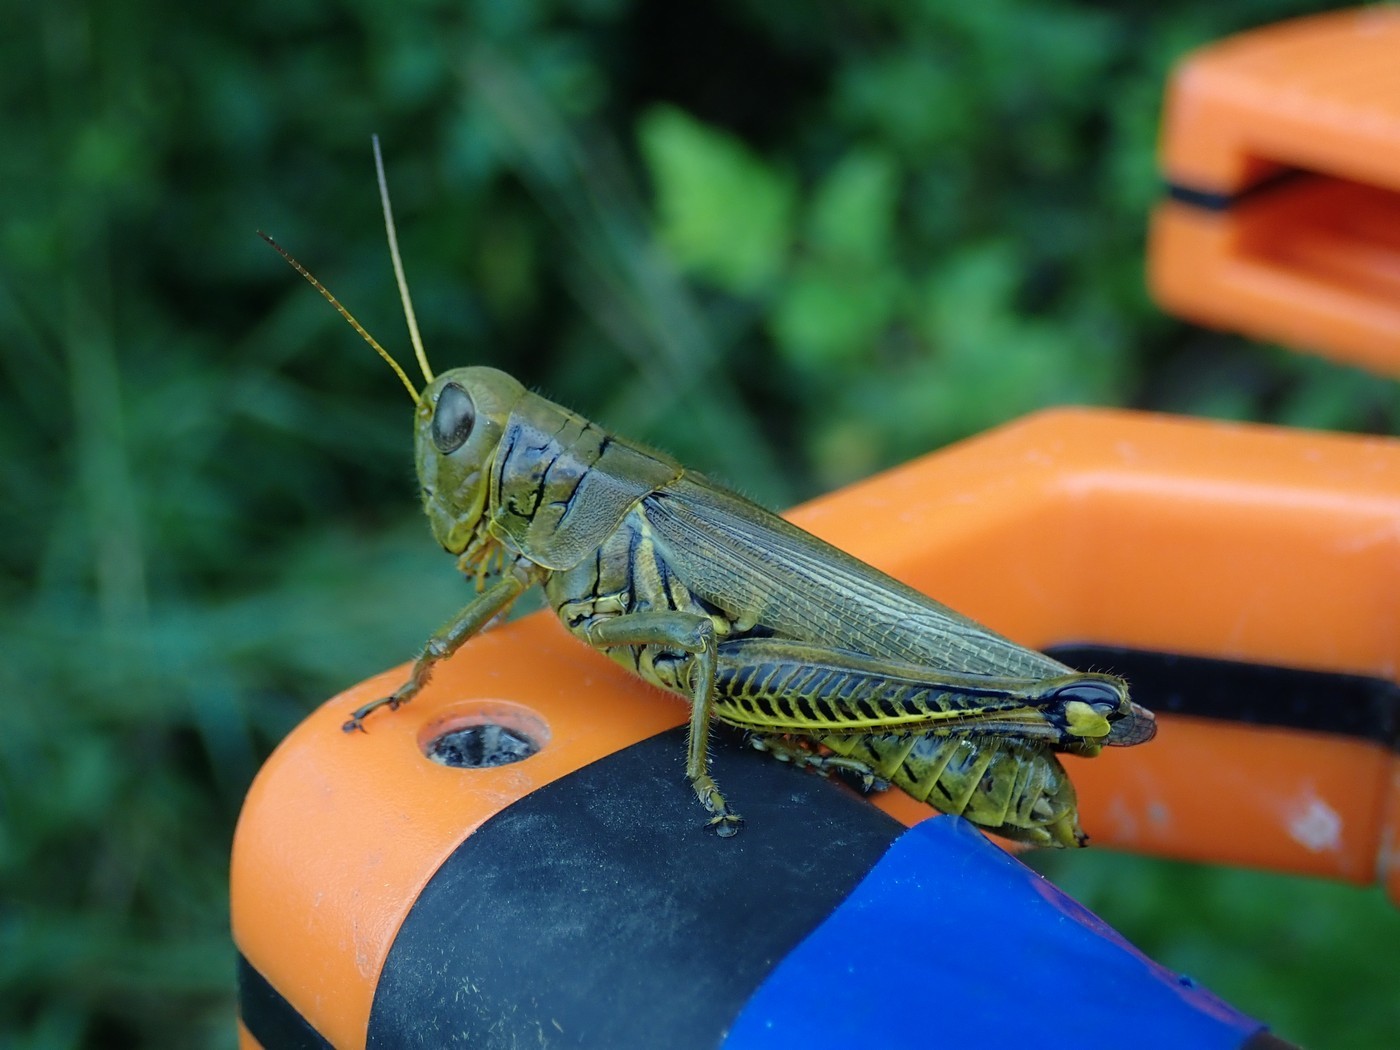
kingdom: Animalia
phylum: Arthropoda
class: Insecta
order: Orthoptera
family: Acrididae
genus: Melanoplus
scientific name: Melanoplus differentialis
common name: Differential grasshopper
